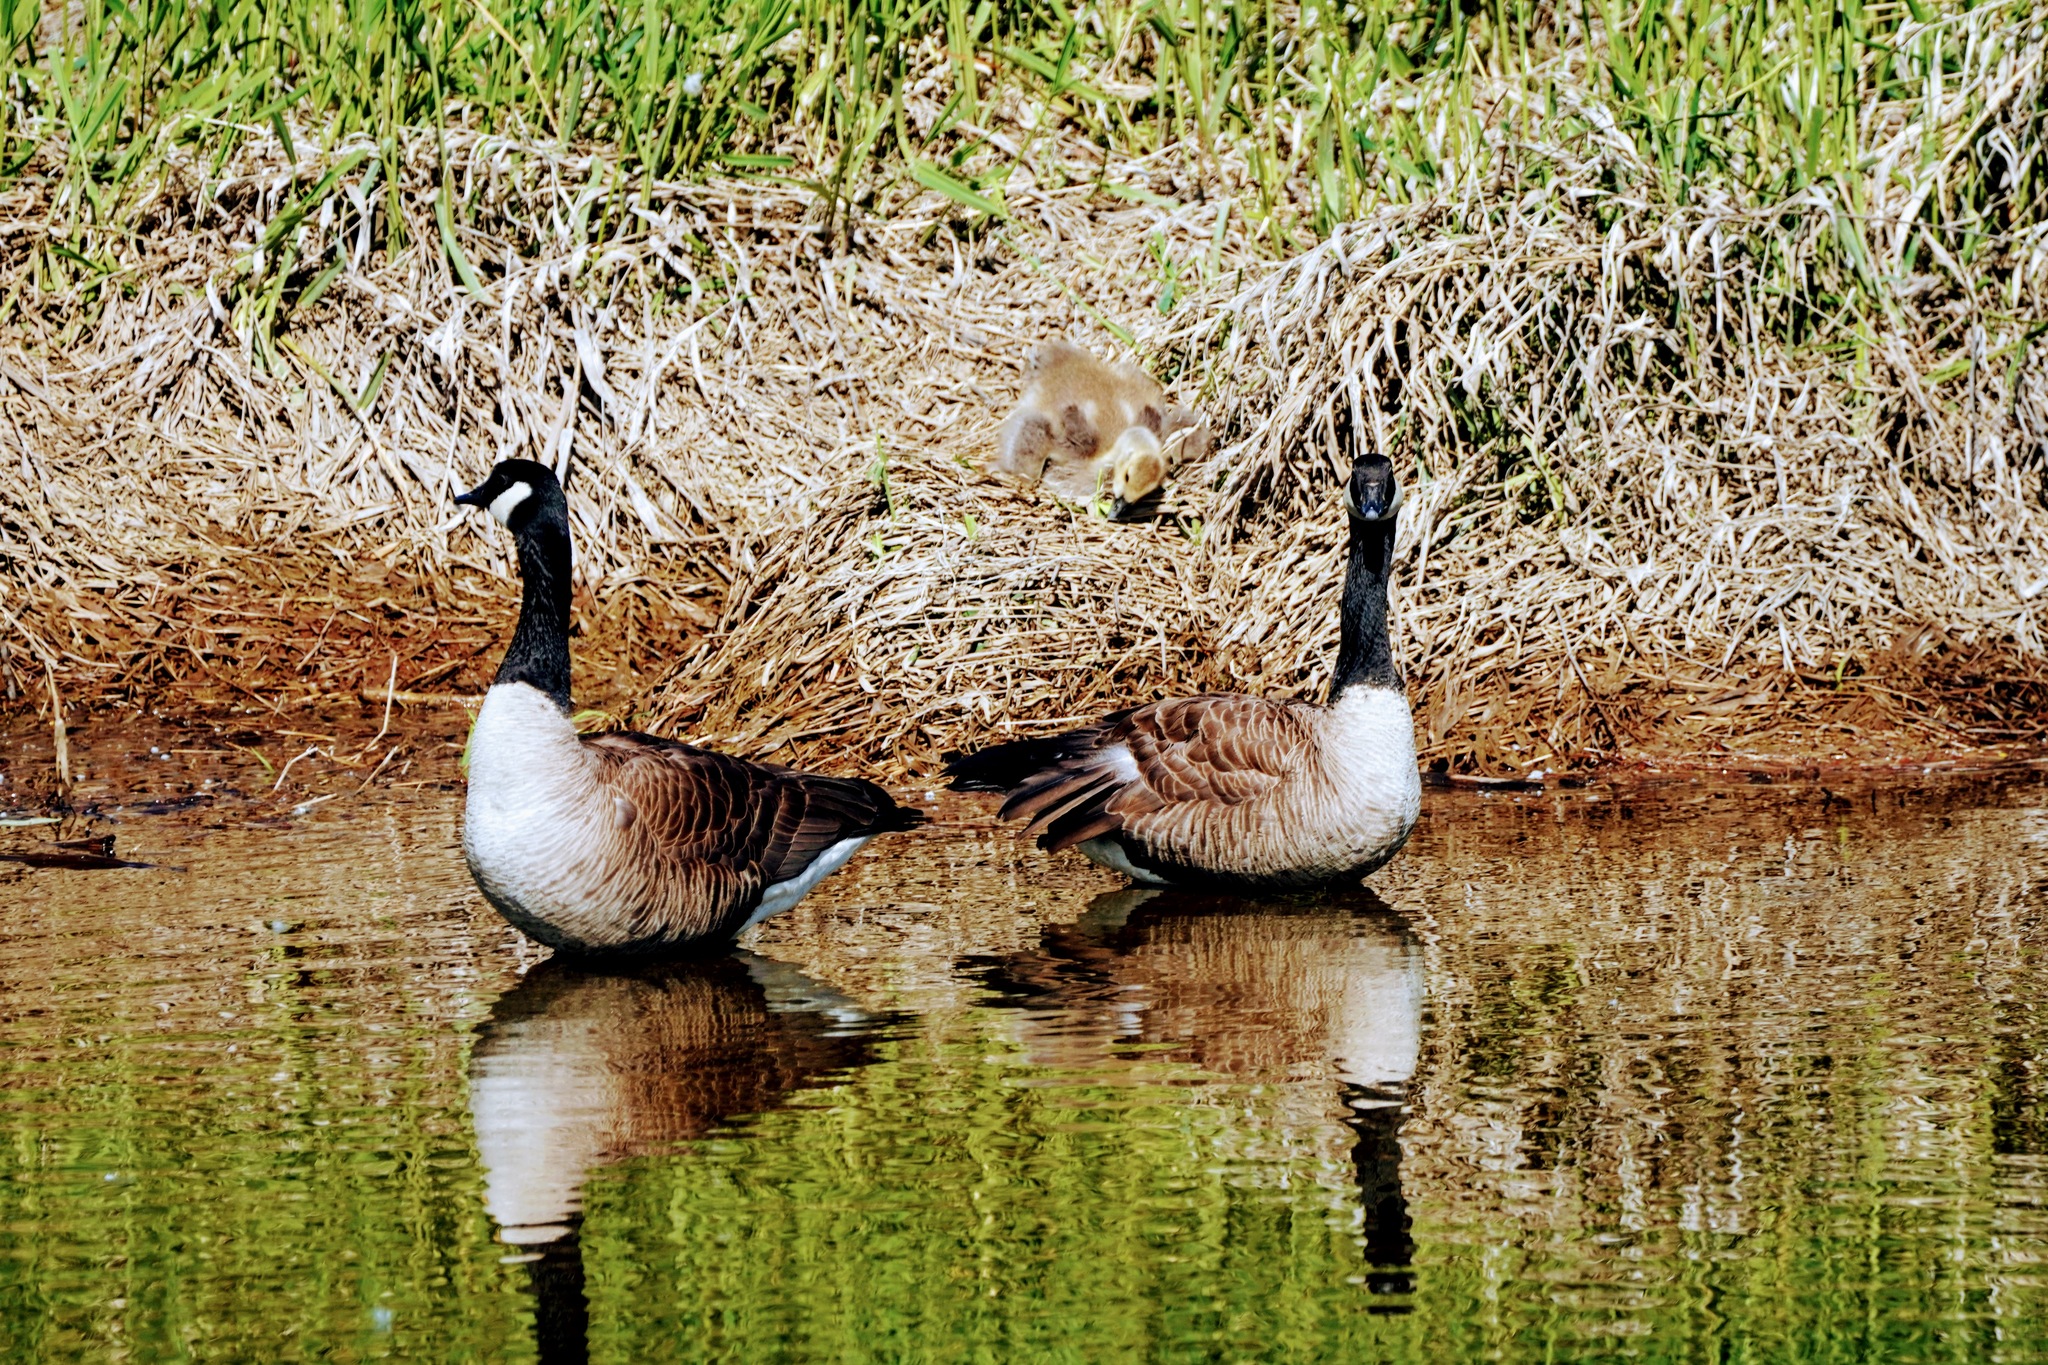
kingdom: Animalia
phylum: Chordata
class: Aves
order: Anseriformes
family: Anatidae
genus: Branta
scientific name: Branta canadensis
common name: Canada goose
